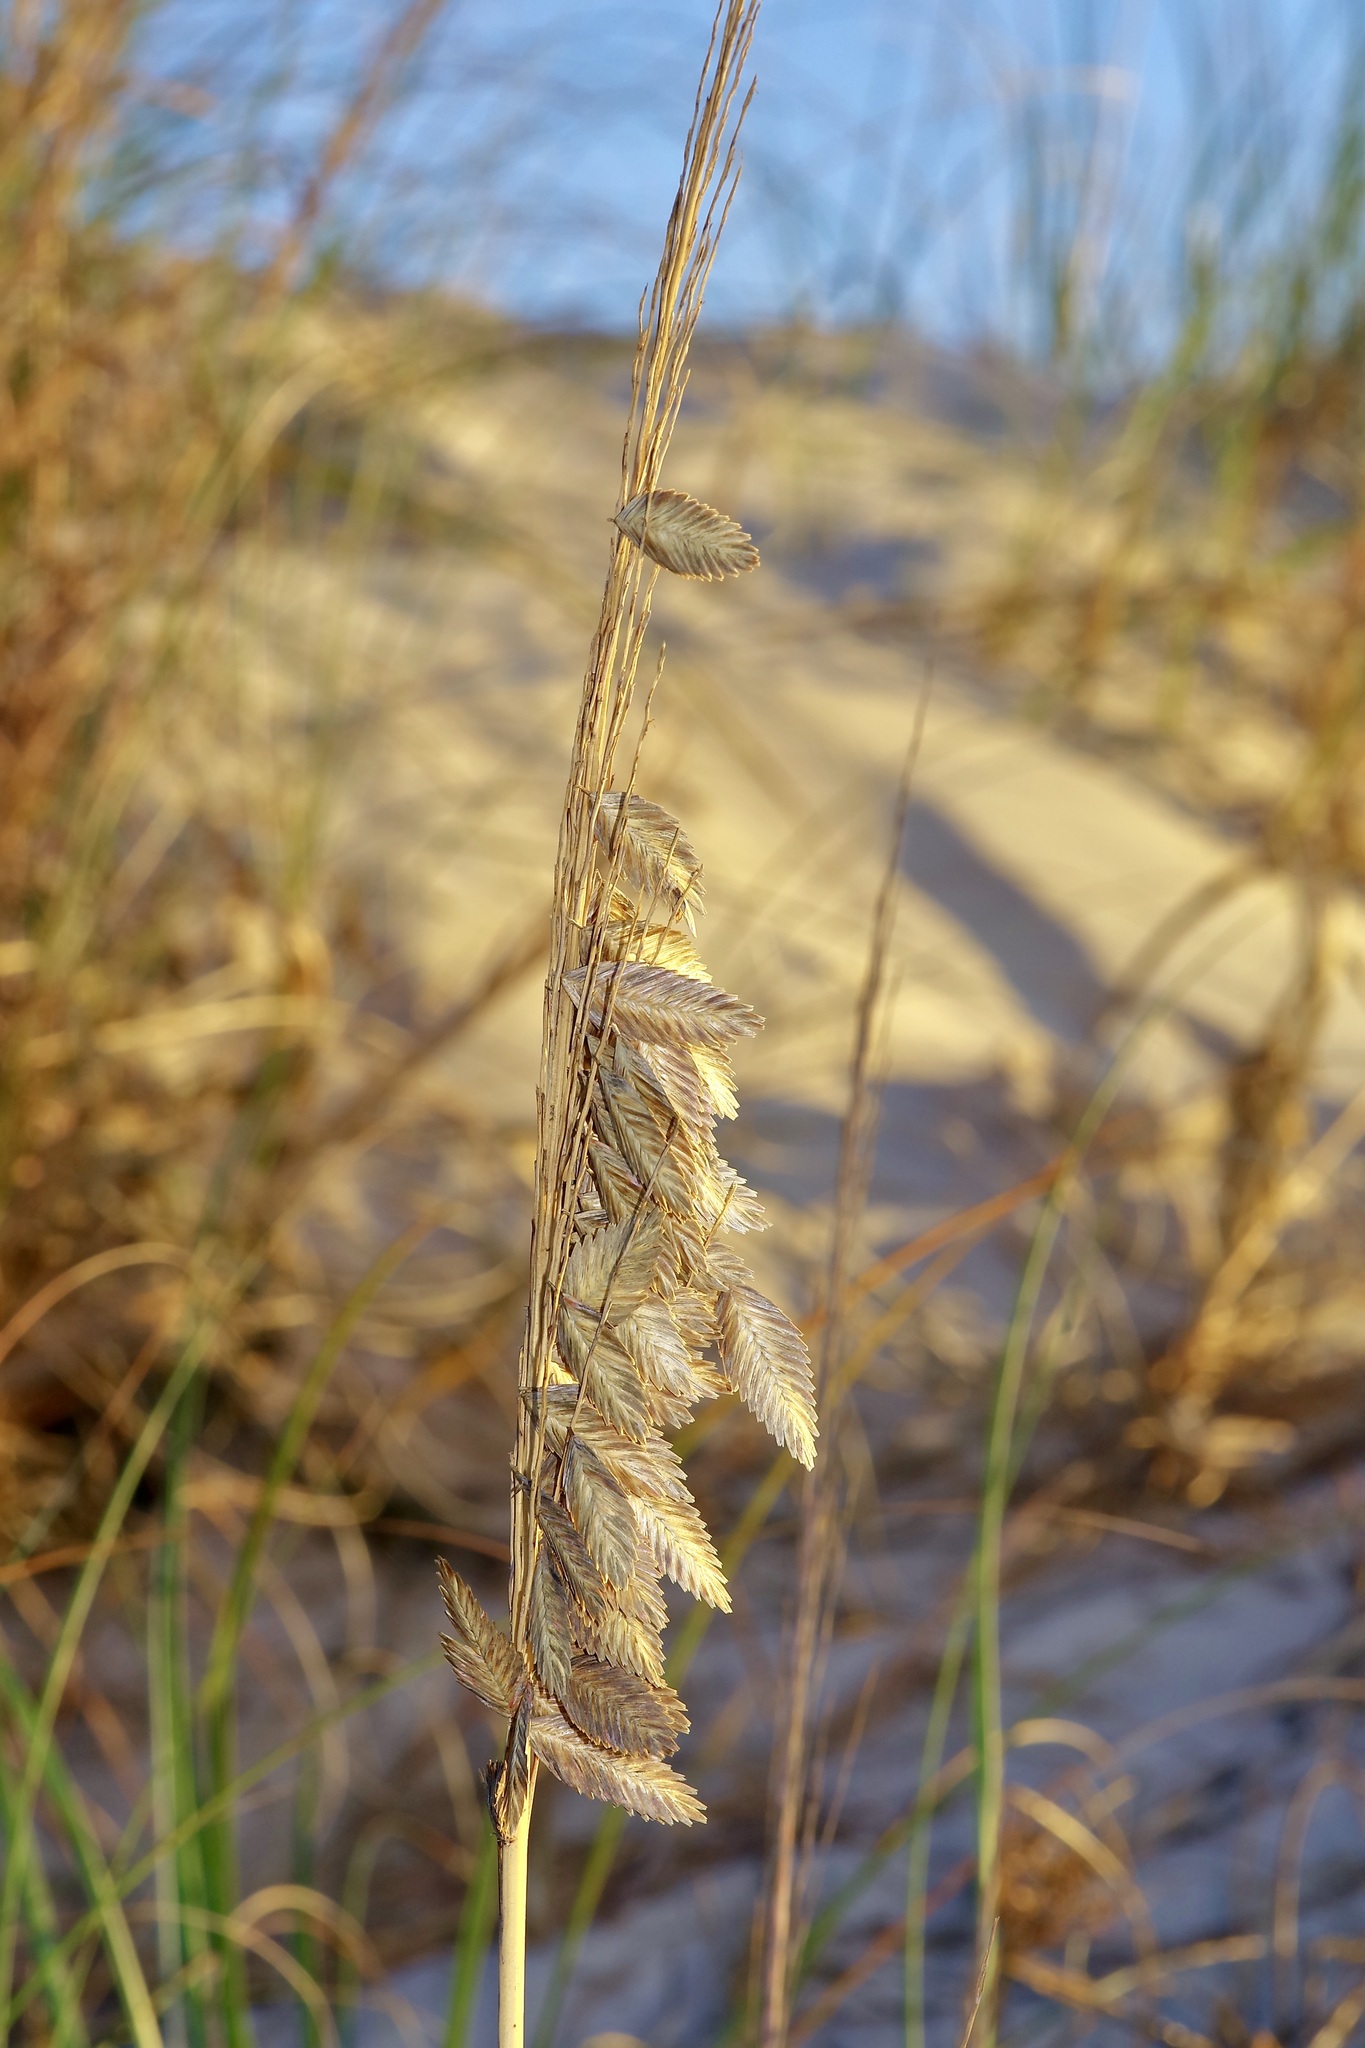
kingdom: Plantae
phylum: Tracheophyta
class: Liliopsida
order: Poales
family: Poaceae
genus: Uniola
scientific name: Uniola paniculata
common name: Seaside-oats
